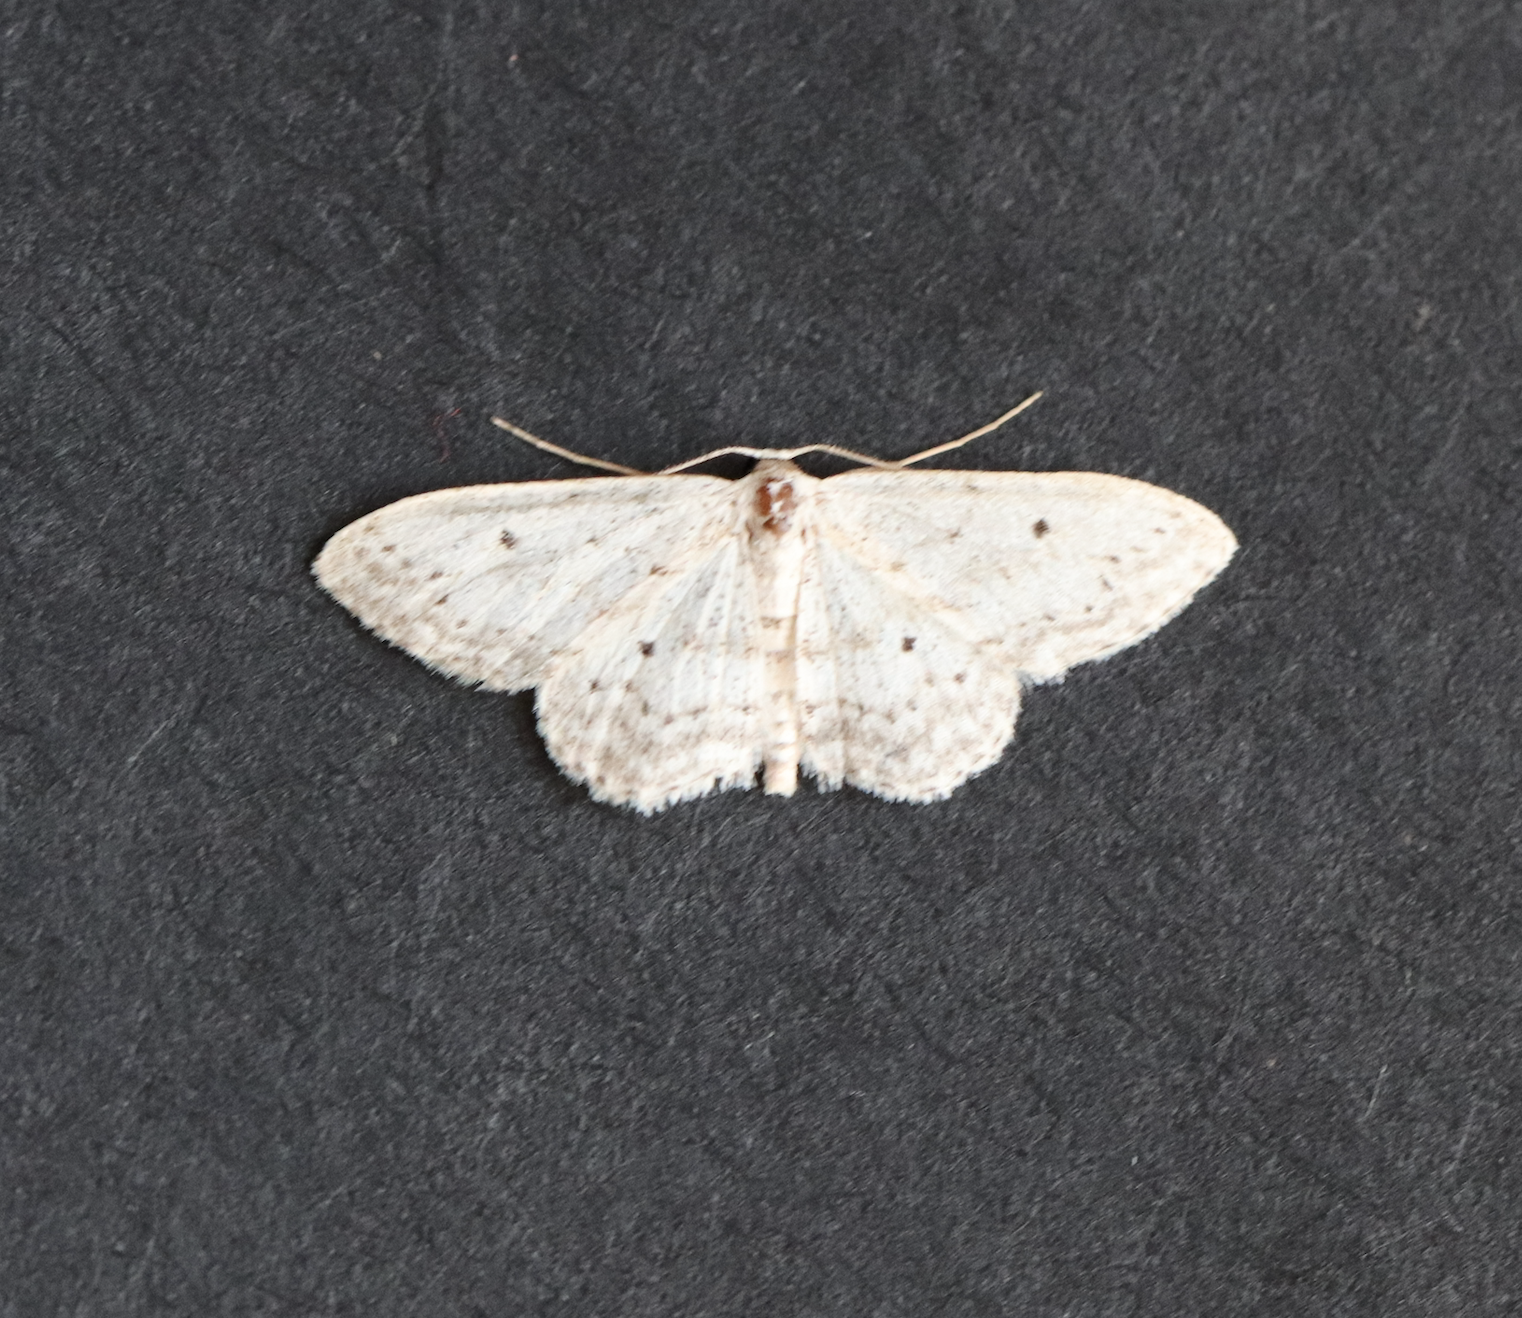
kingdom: Animalia
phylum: Arthropoda
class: Insecta
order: Lepidoptera
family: Geometridae
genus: Idaea
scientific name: Idaea seriata
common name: Small dusty wave
